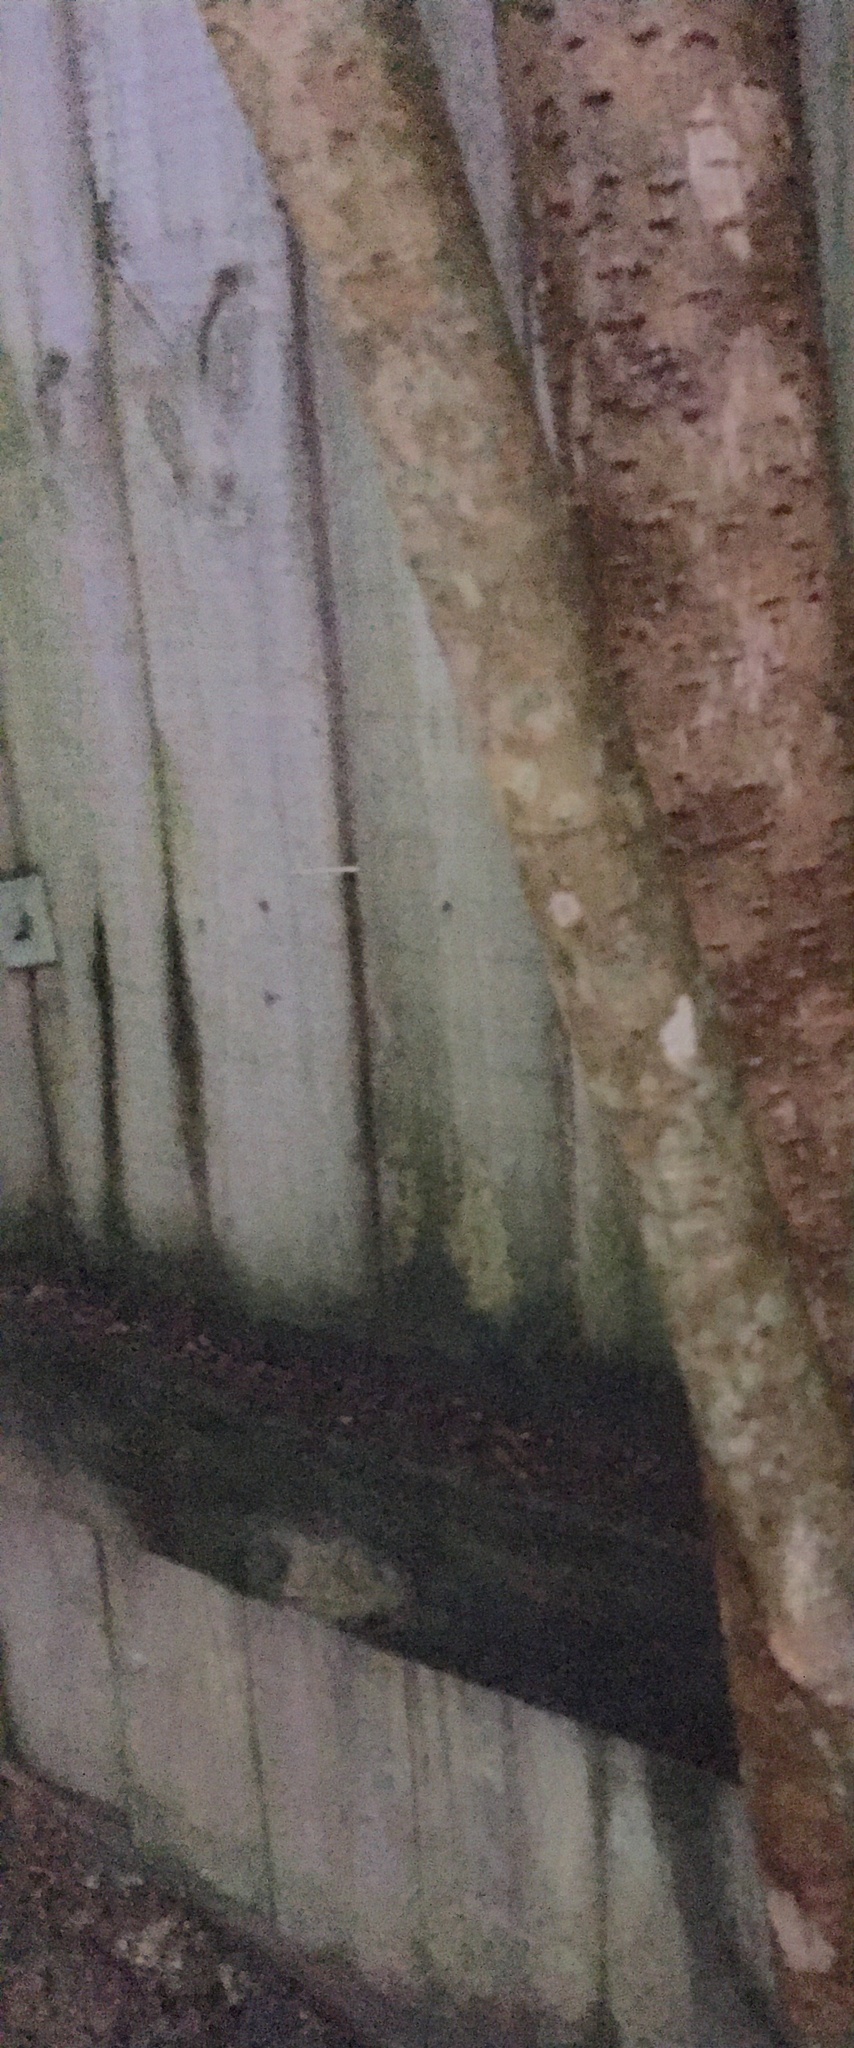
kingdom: Plantae
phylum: Tracheophyta
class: Magnoliopsida
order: Lamiales
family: Oleaceae
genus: Ligustrum
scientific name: Ligustrum lucidum
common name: Glossy privet
